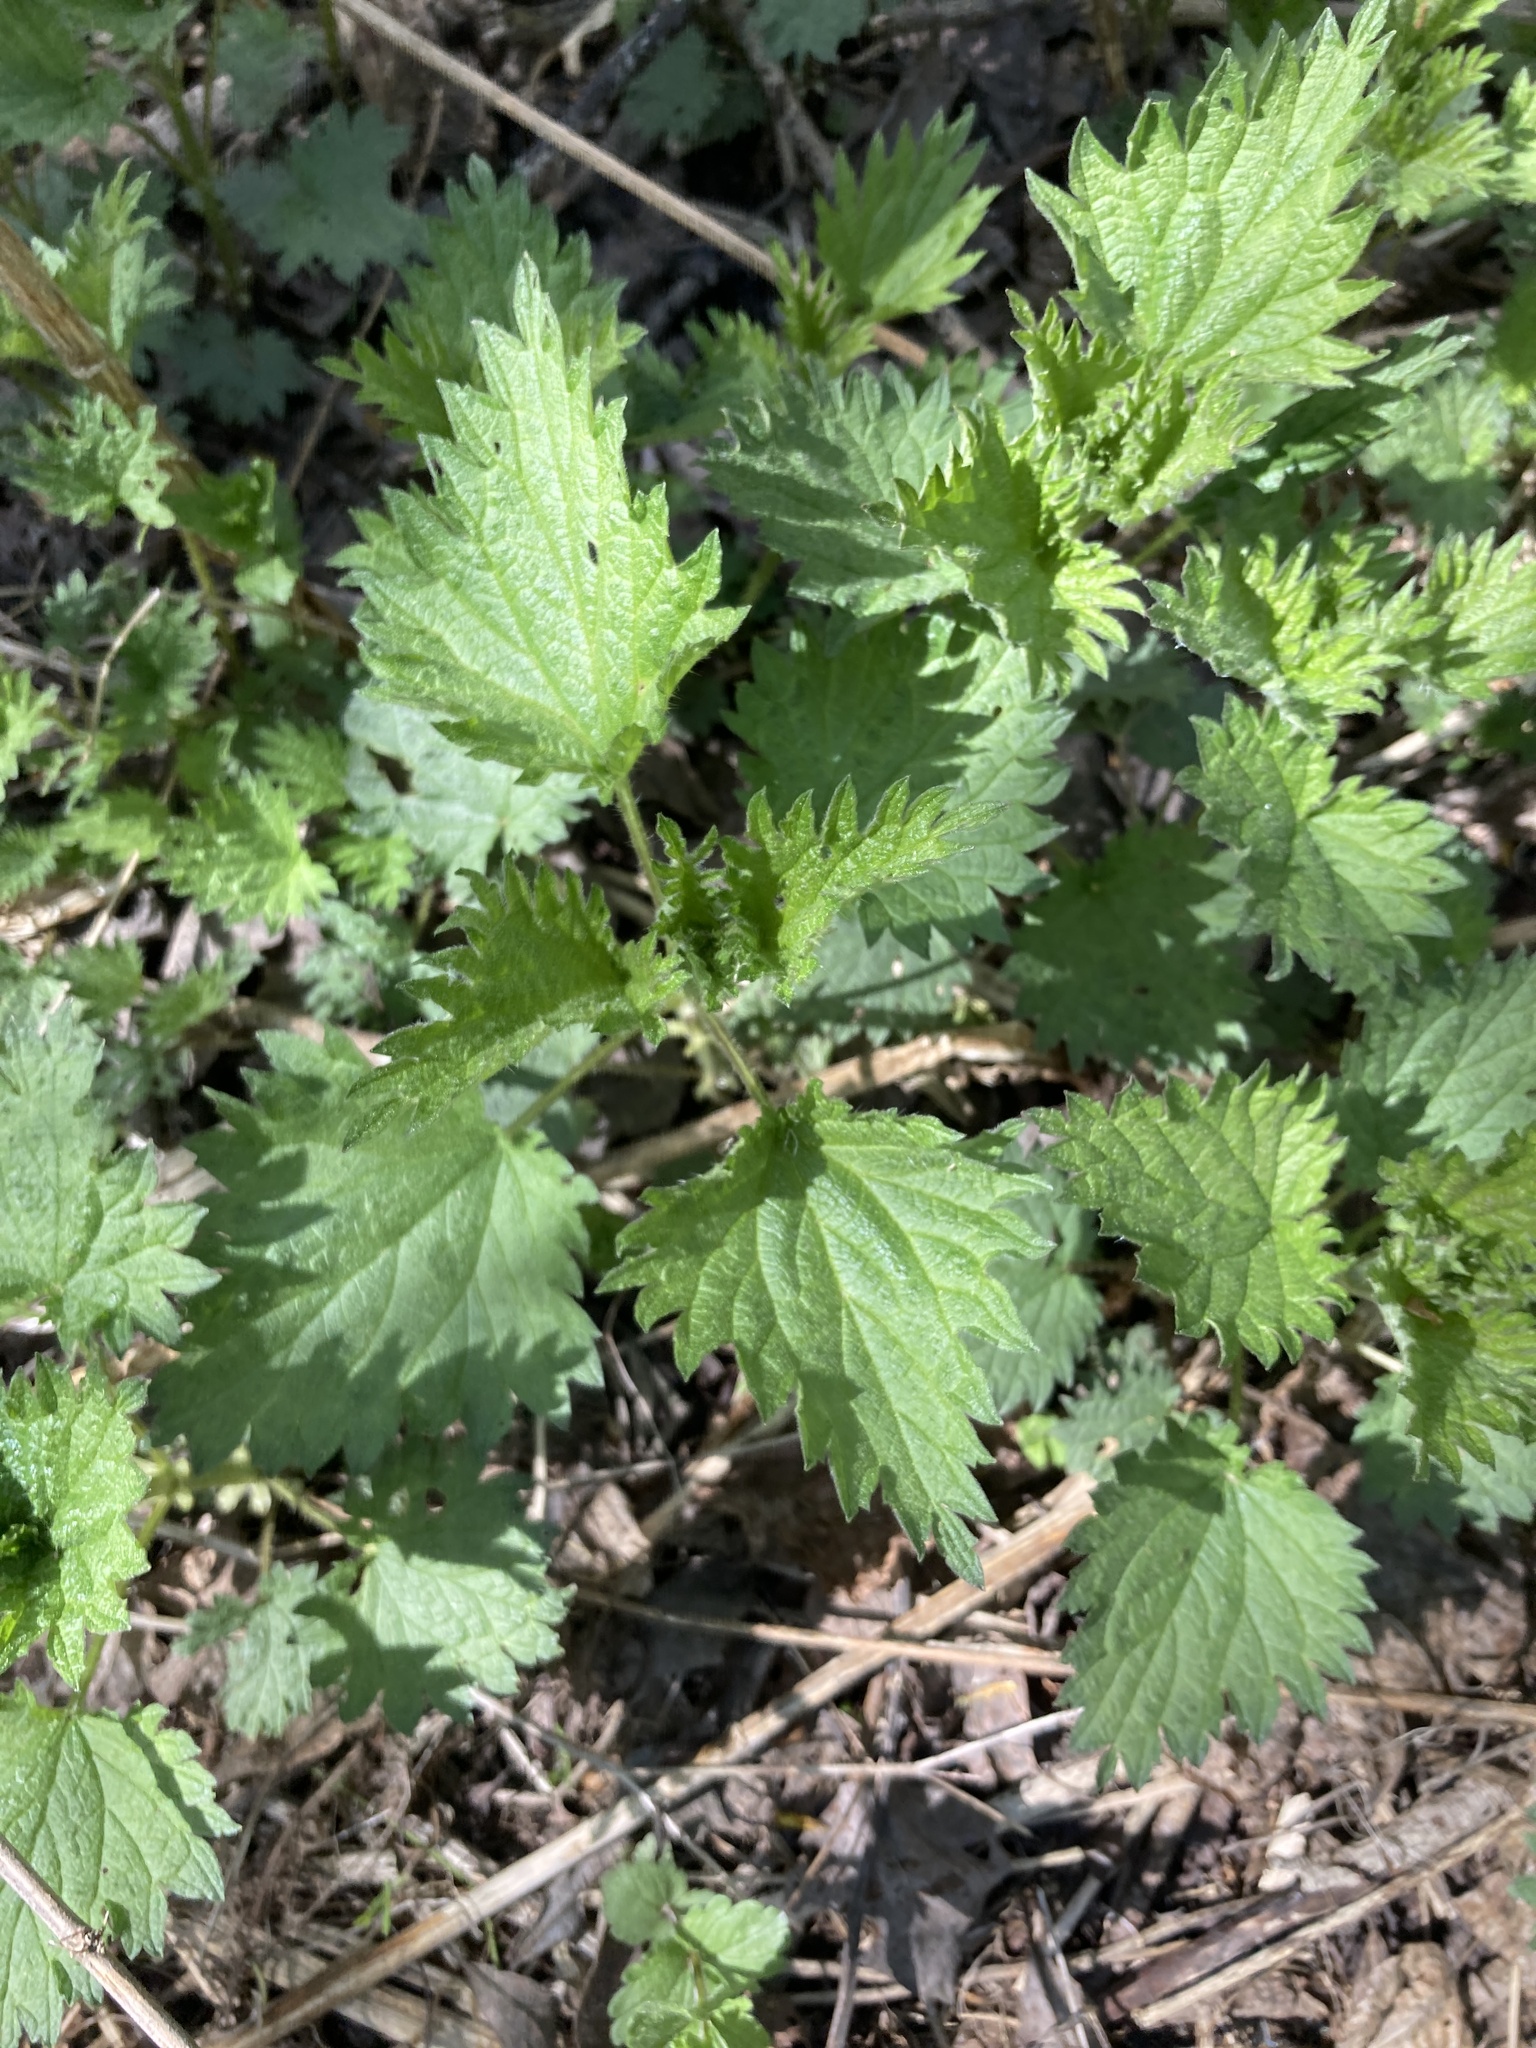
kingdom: Plantae
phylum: Tracheophyta
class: Magnoliopsida
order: Rosales
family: Urticaceae
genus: Urtica
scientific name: Urtica dioica
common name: Common nettle
